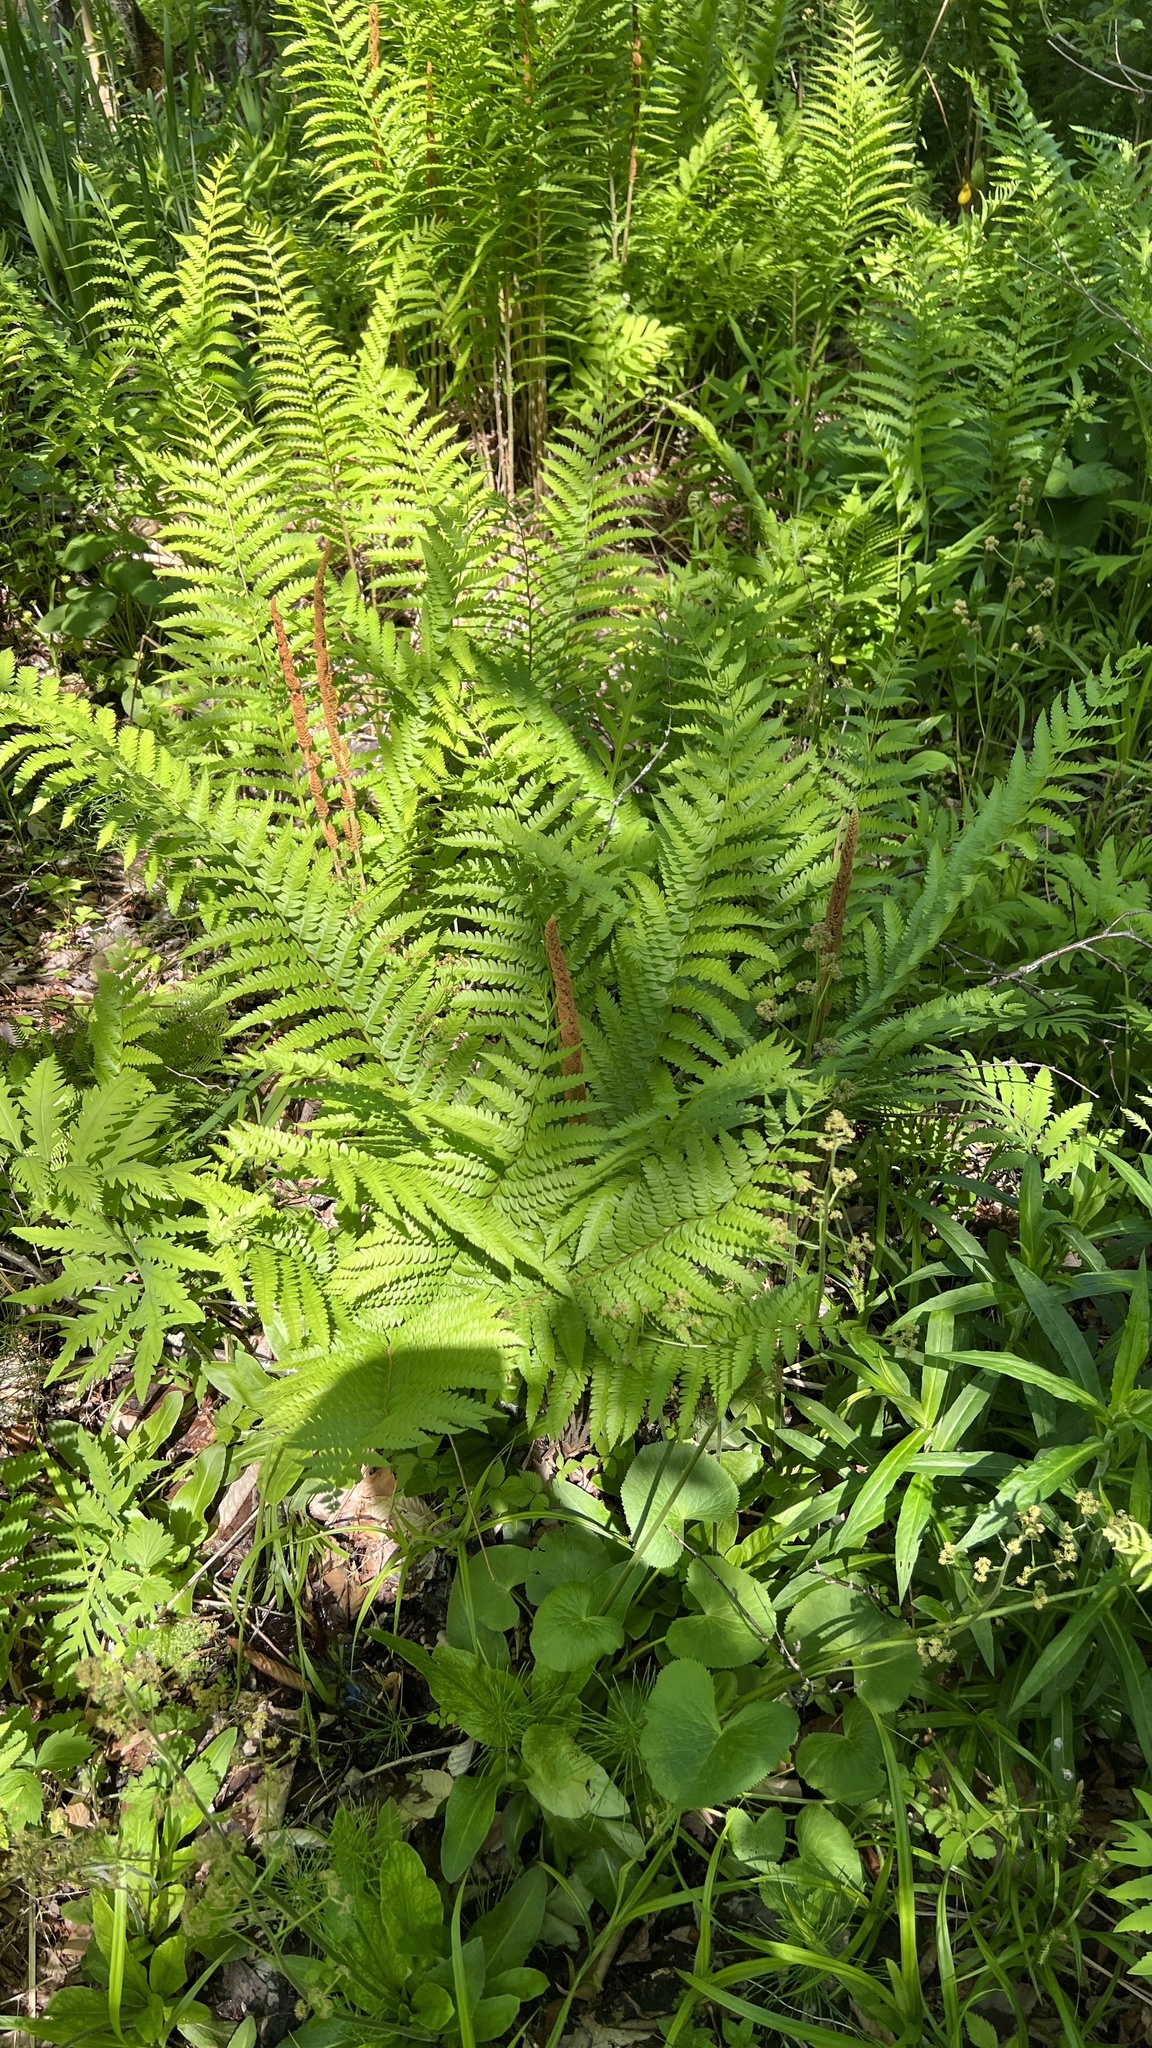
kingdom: Plantae
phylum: Tracheophyta
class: Polypodiopsida
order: Osmundales
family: Osmundaceae
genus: Osmundastrum
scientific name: Osmundastrum cinnamomeum
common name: Cinnamon fern
